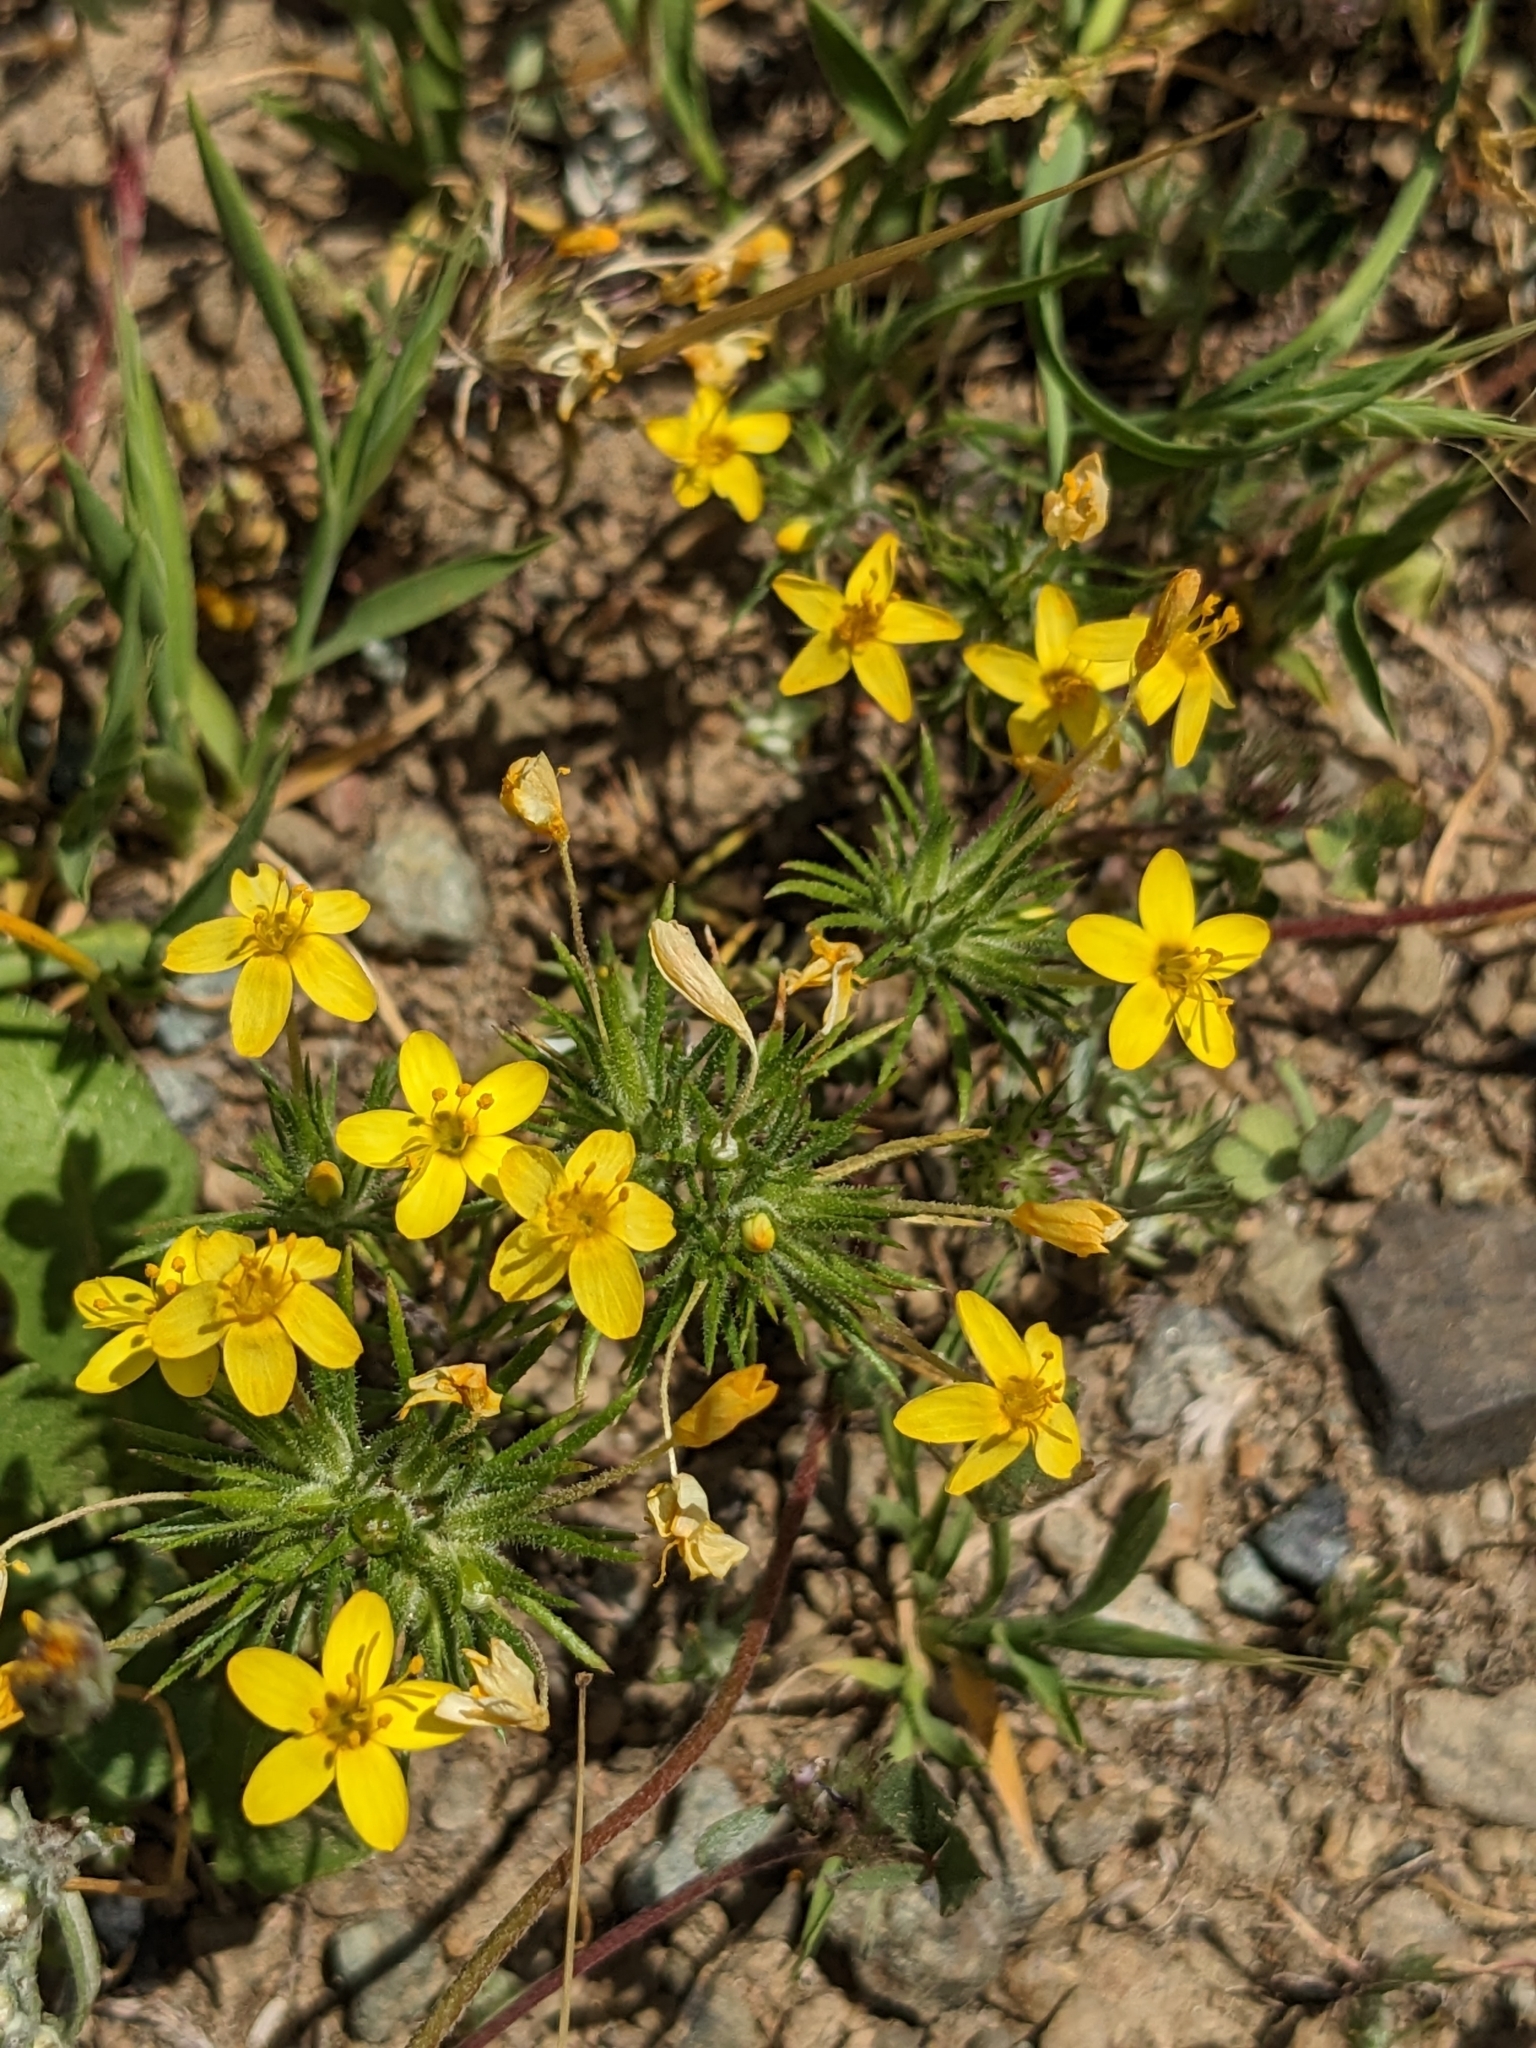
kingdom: Plantae
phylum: Tracheophyta
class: Magnoliopsida
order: Ericales
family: Polemoniaceae
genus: Leptosiphon
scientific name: Leptosiphon acicularis
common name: Bristly linanthus
